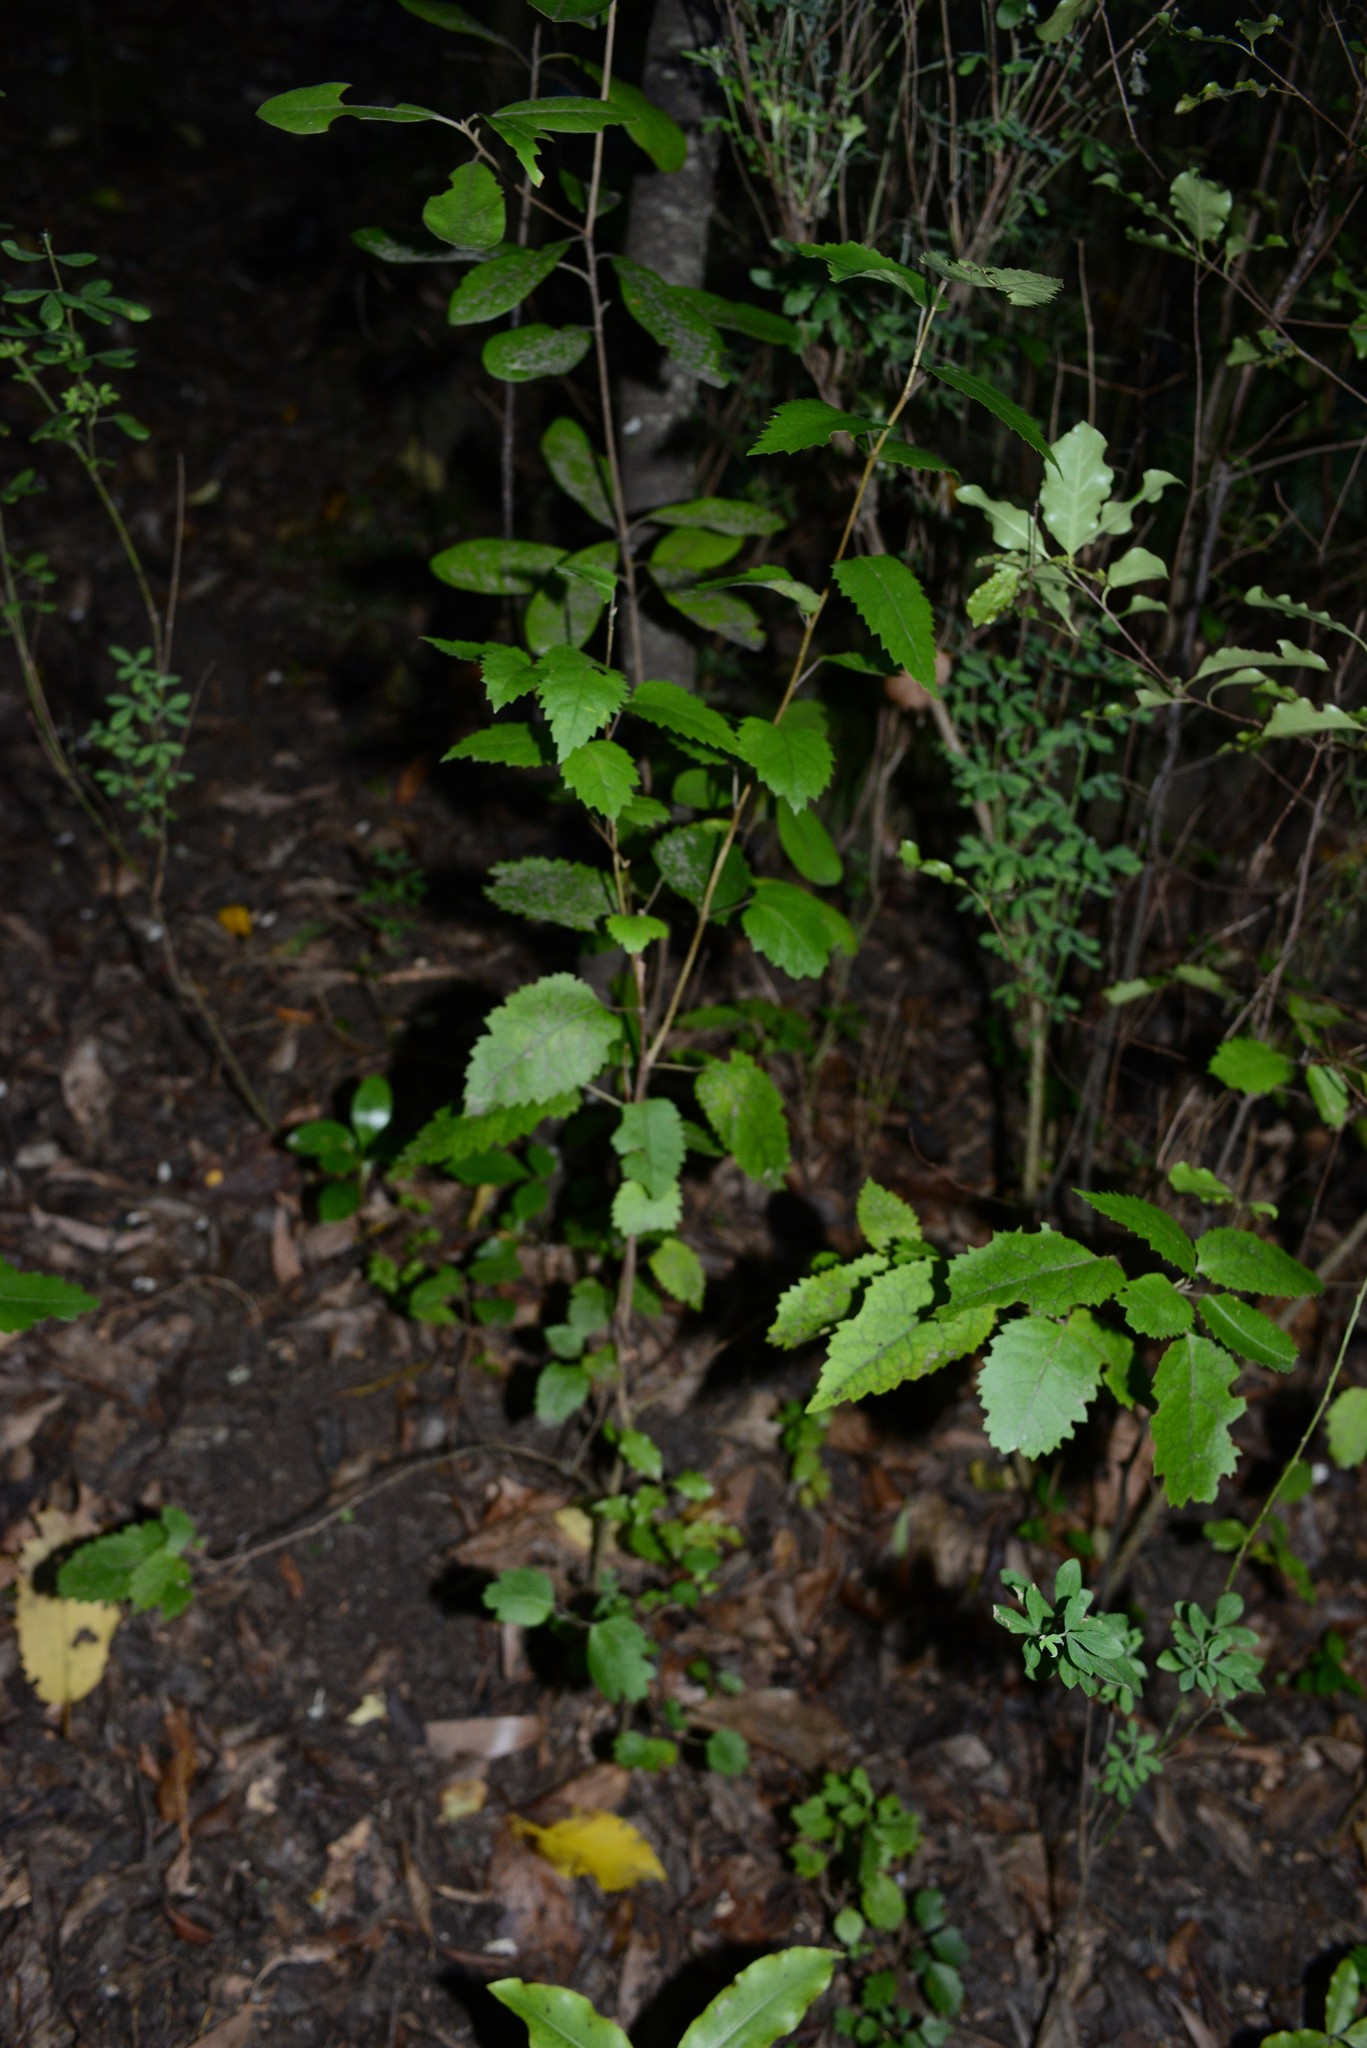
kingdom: Plantae
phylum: Tracheophyta
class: Magnoliopsida
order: Malvales
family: Malvaceae
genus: Hoheria
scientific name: Hoheria populnea
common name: Lacebark
